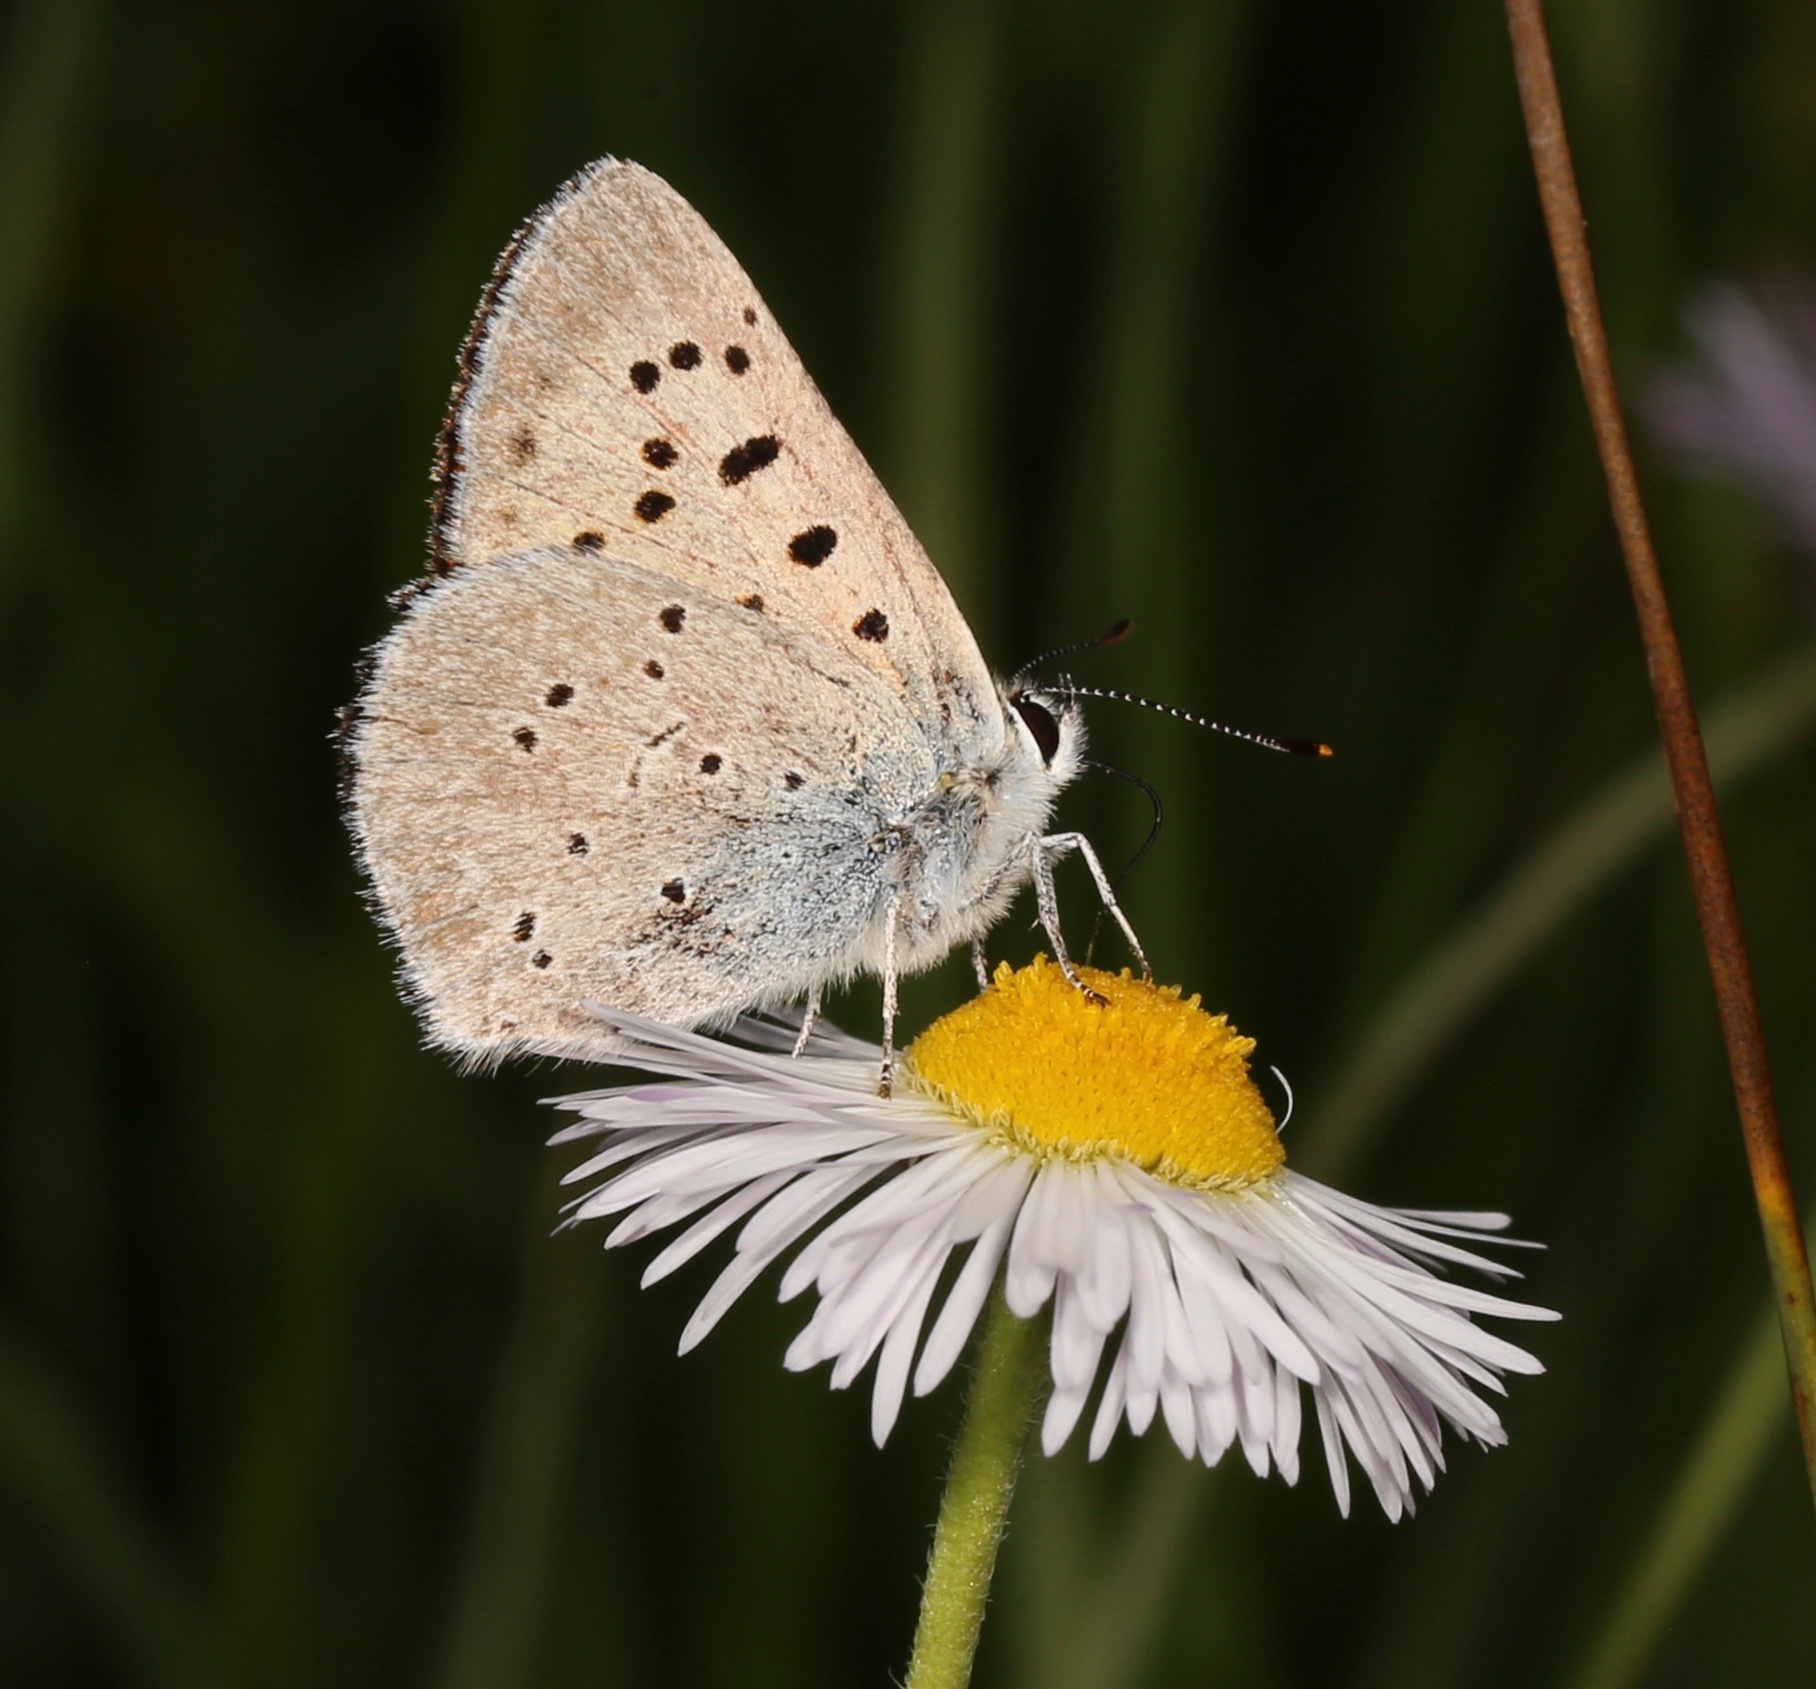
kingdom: Animalia
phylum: Arthropoda
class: Insecta
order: Lepidoptera
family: Lycaenidae
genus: Tharsalea
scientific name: Tharsalea rubidus
